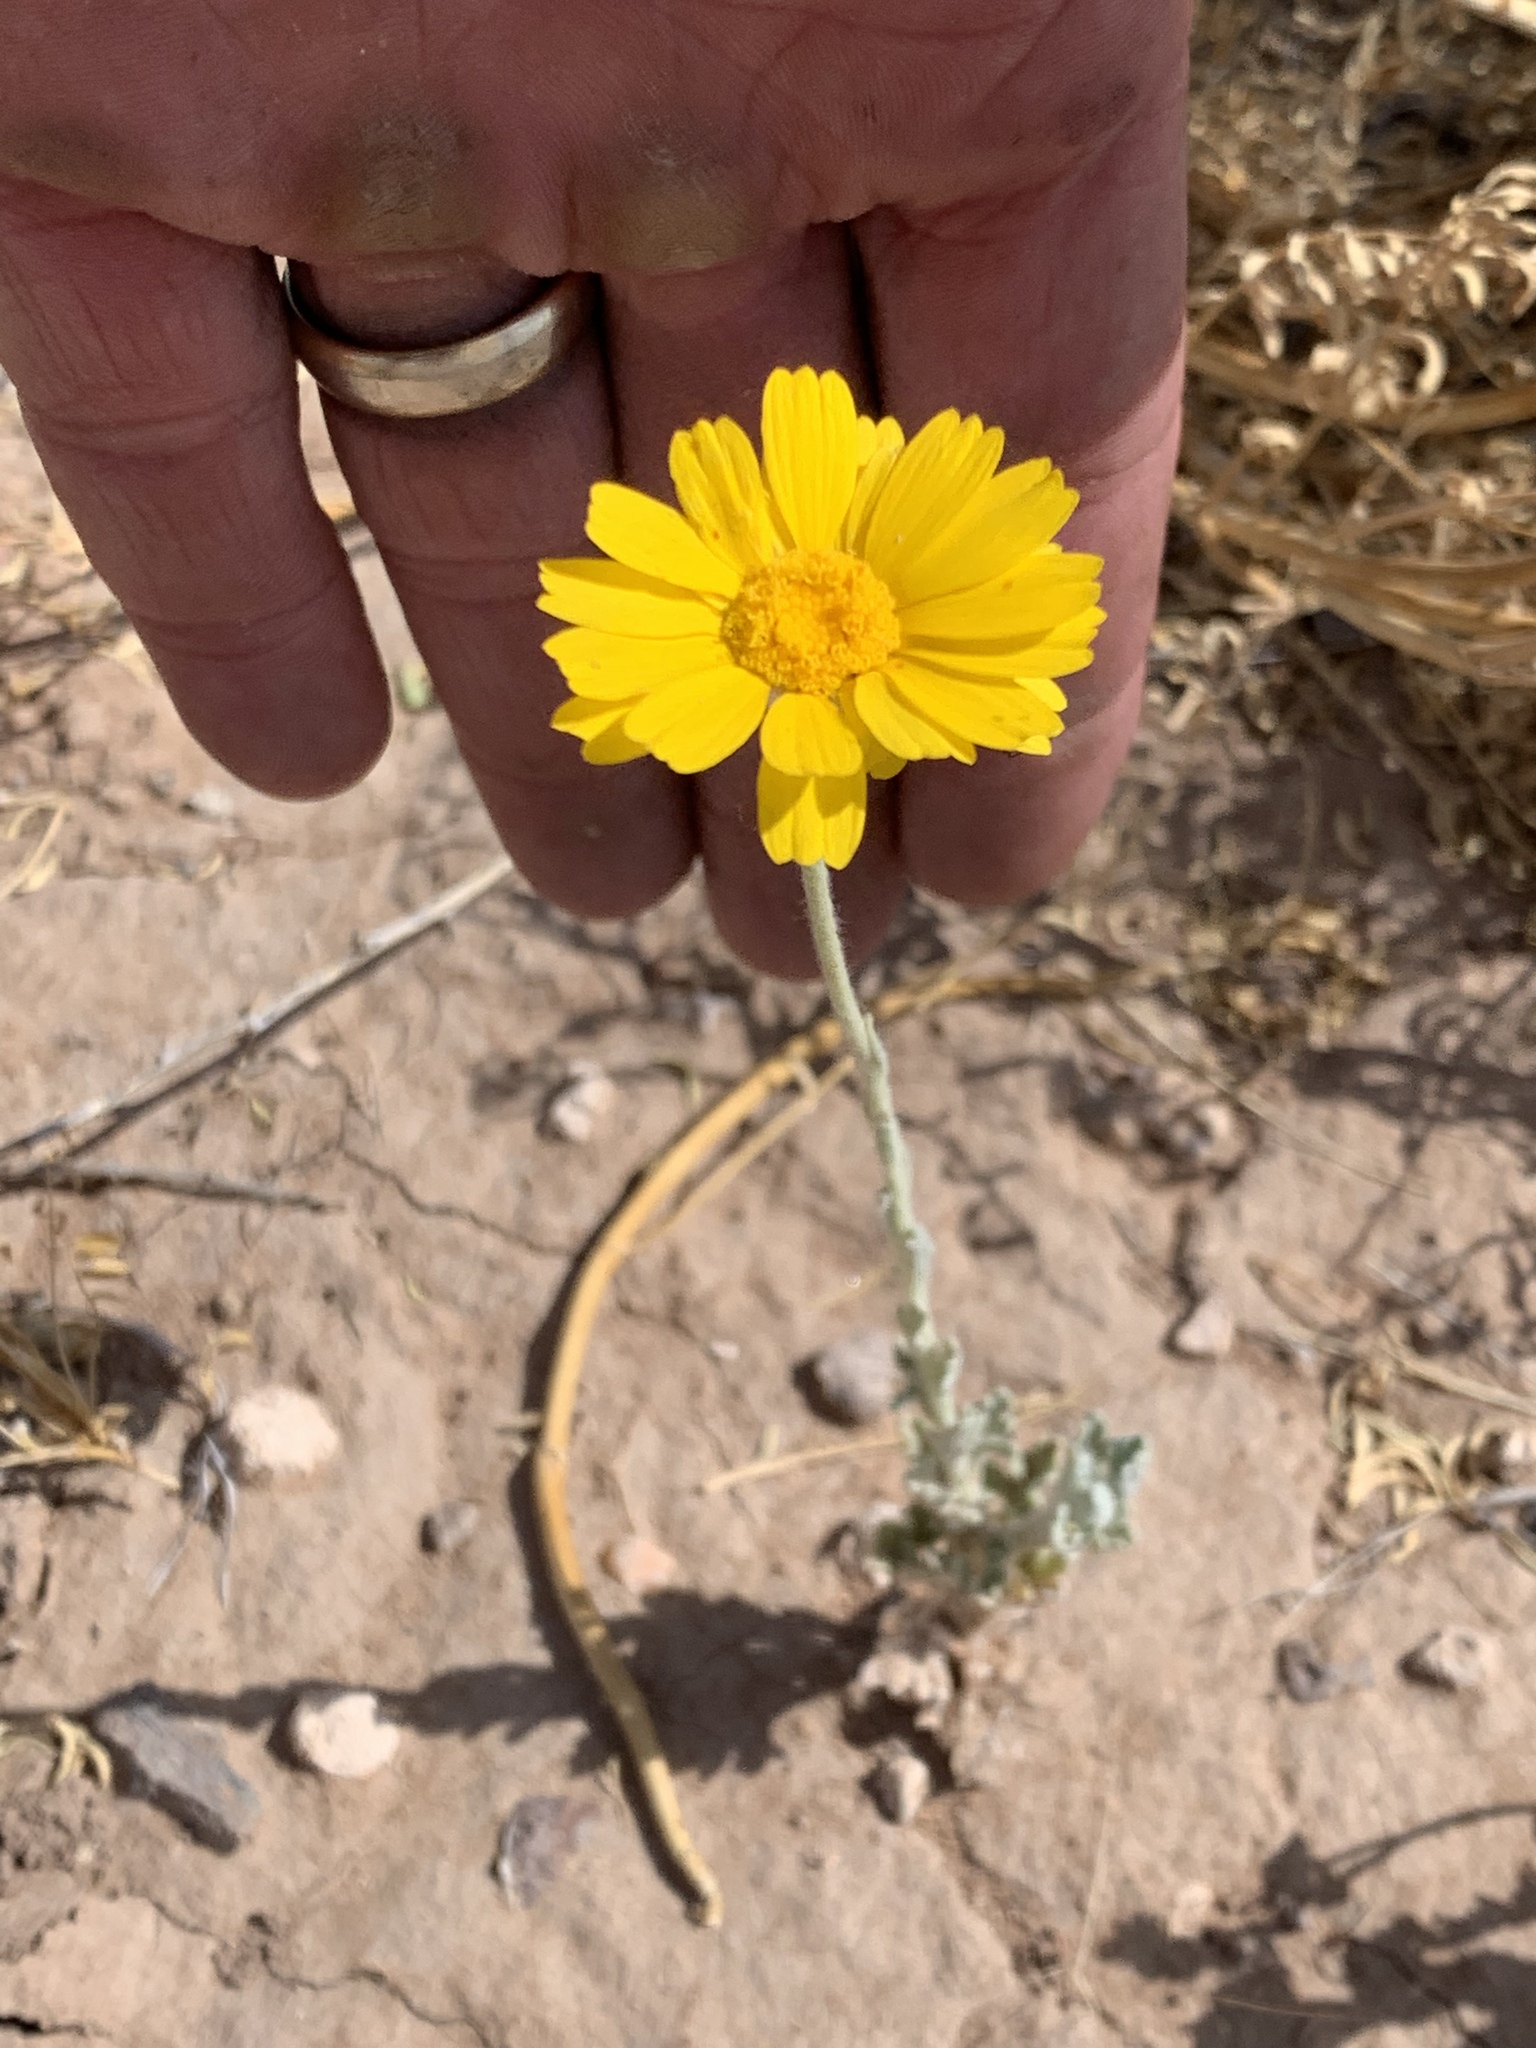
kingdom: Plantae
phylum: Tracheophyta
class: Magnoliopsida
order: Asterales
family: Asteraceae
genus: Baileya
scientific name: Baileya multiradiata
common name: Desert-marigold
